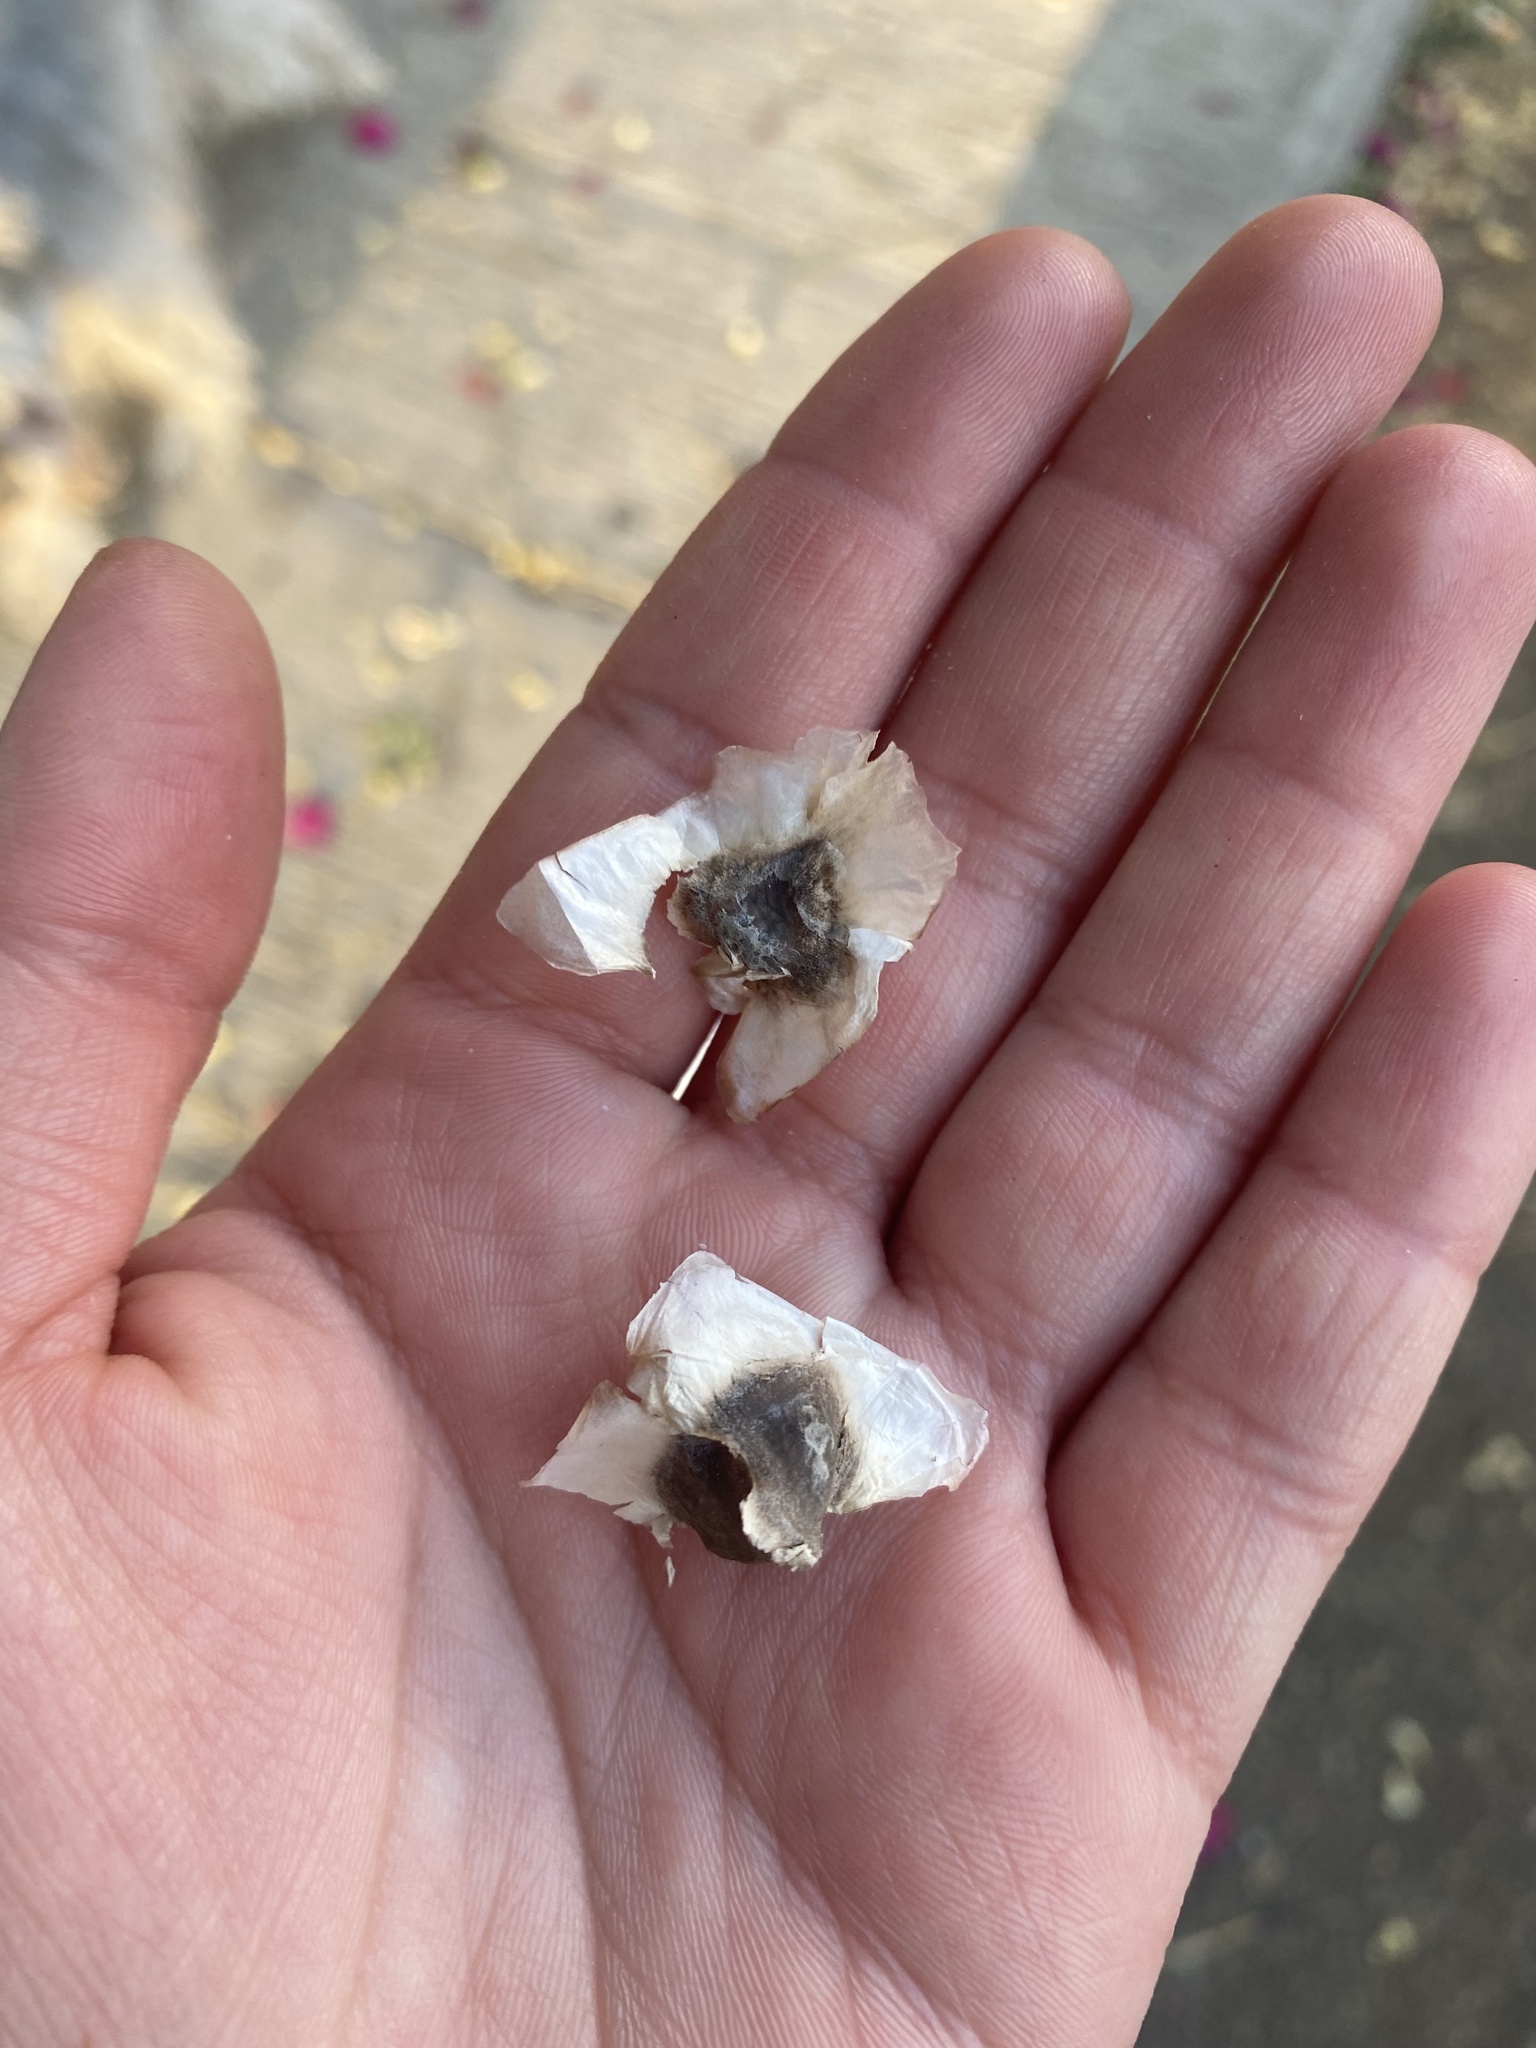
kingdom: Plantae
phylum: Tracheophyta
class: Magnoliopsida
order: Brassicales
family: Moringaceae
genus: Moringa
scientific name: Moringa oleifera
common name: Horseradish-tree
